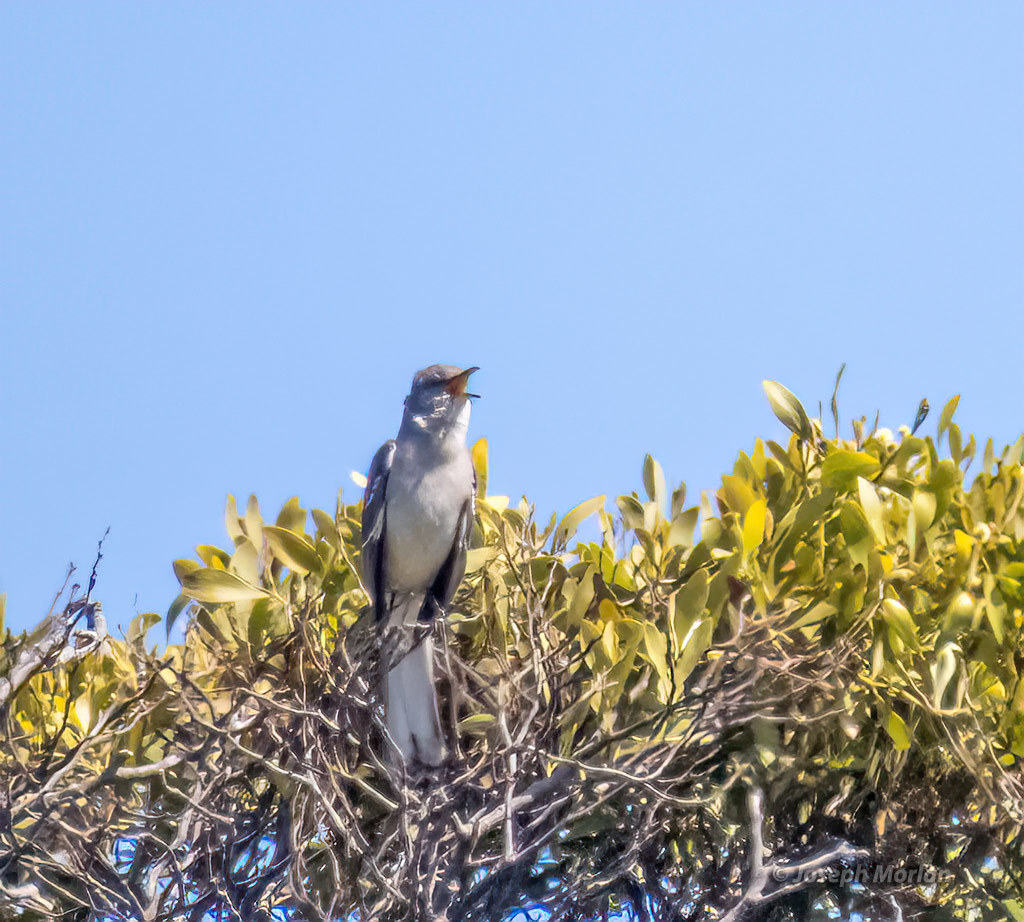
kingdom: Animalia
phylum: Chordata
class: Aves
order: Passeriformes
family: Mimidae
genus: Mimus
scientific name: Mimus polyglottos
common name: Northern mockingbird
